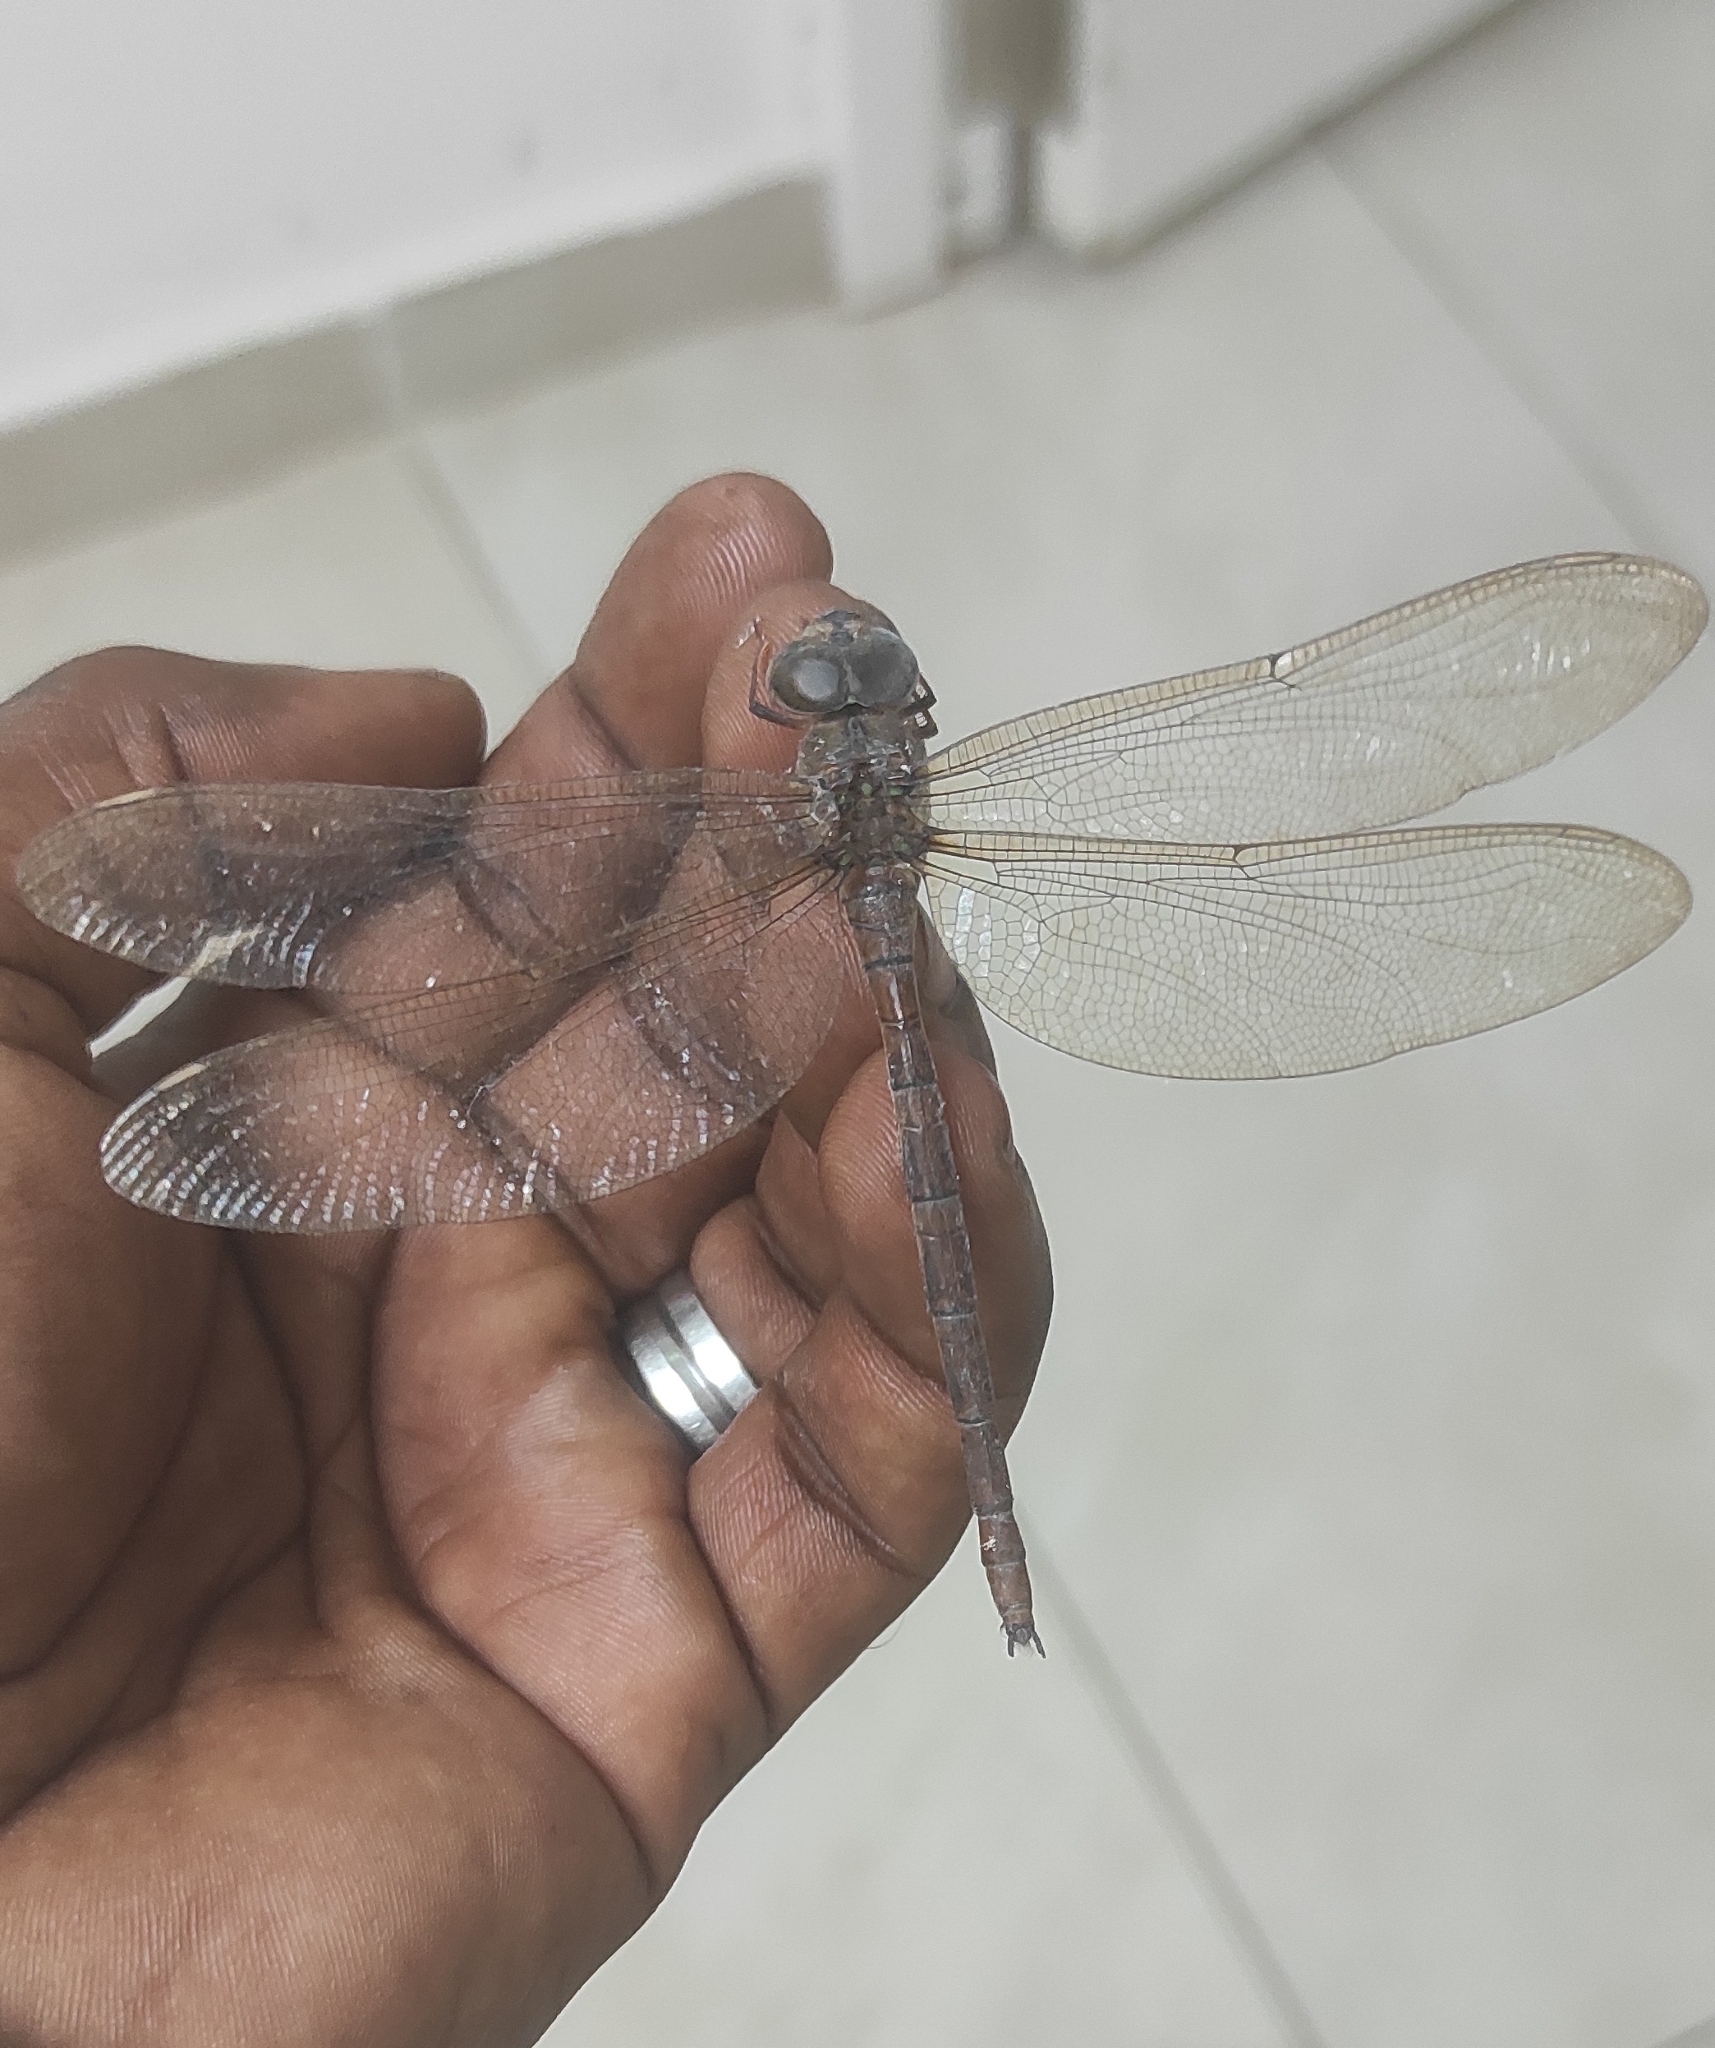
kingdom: Animalia
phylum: Arthropoda
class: Insecta
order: Odonata
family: Aeshnidae
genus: Gynacantha
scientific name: Gynacantha dravida
